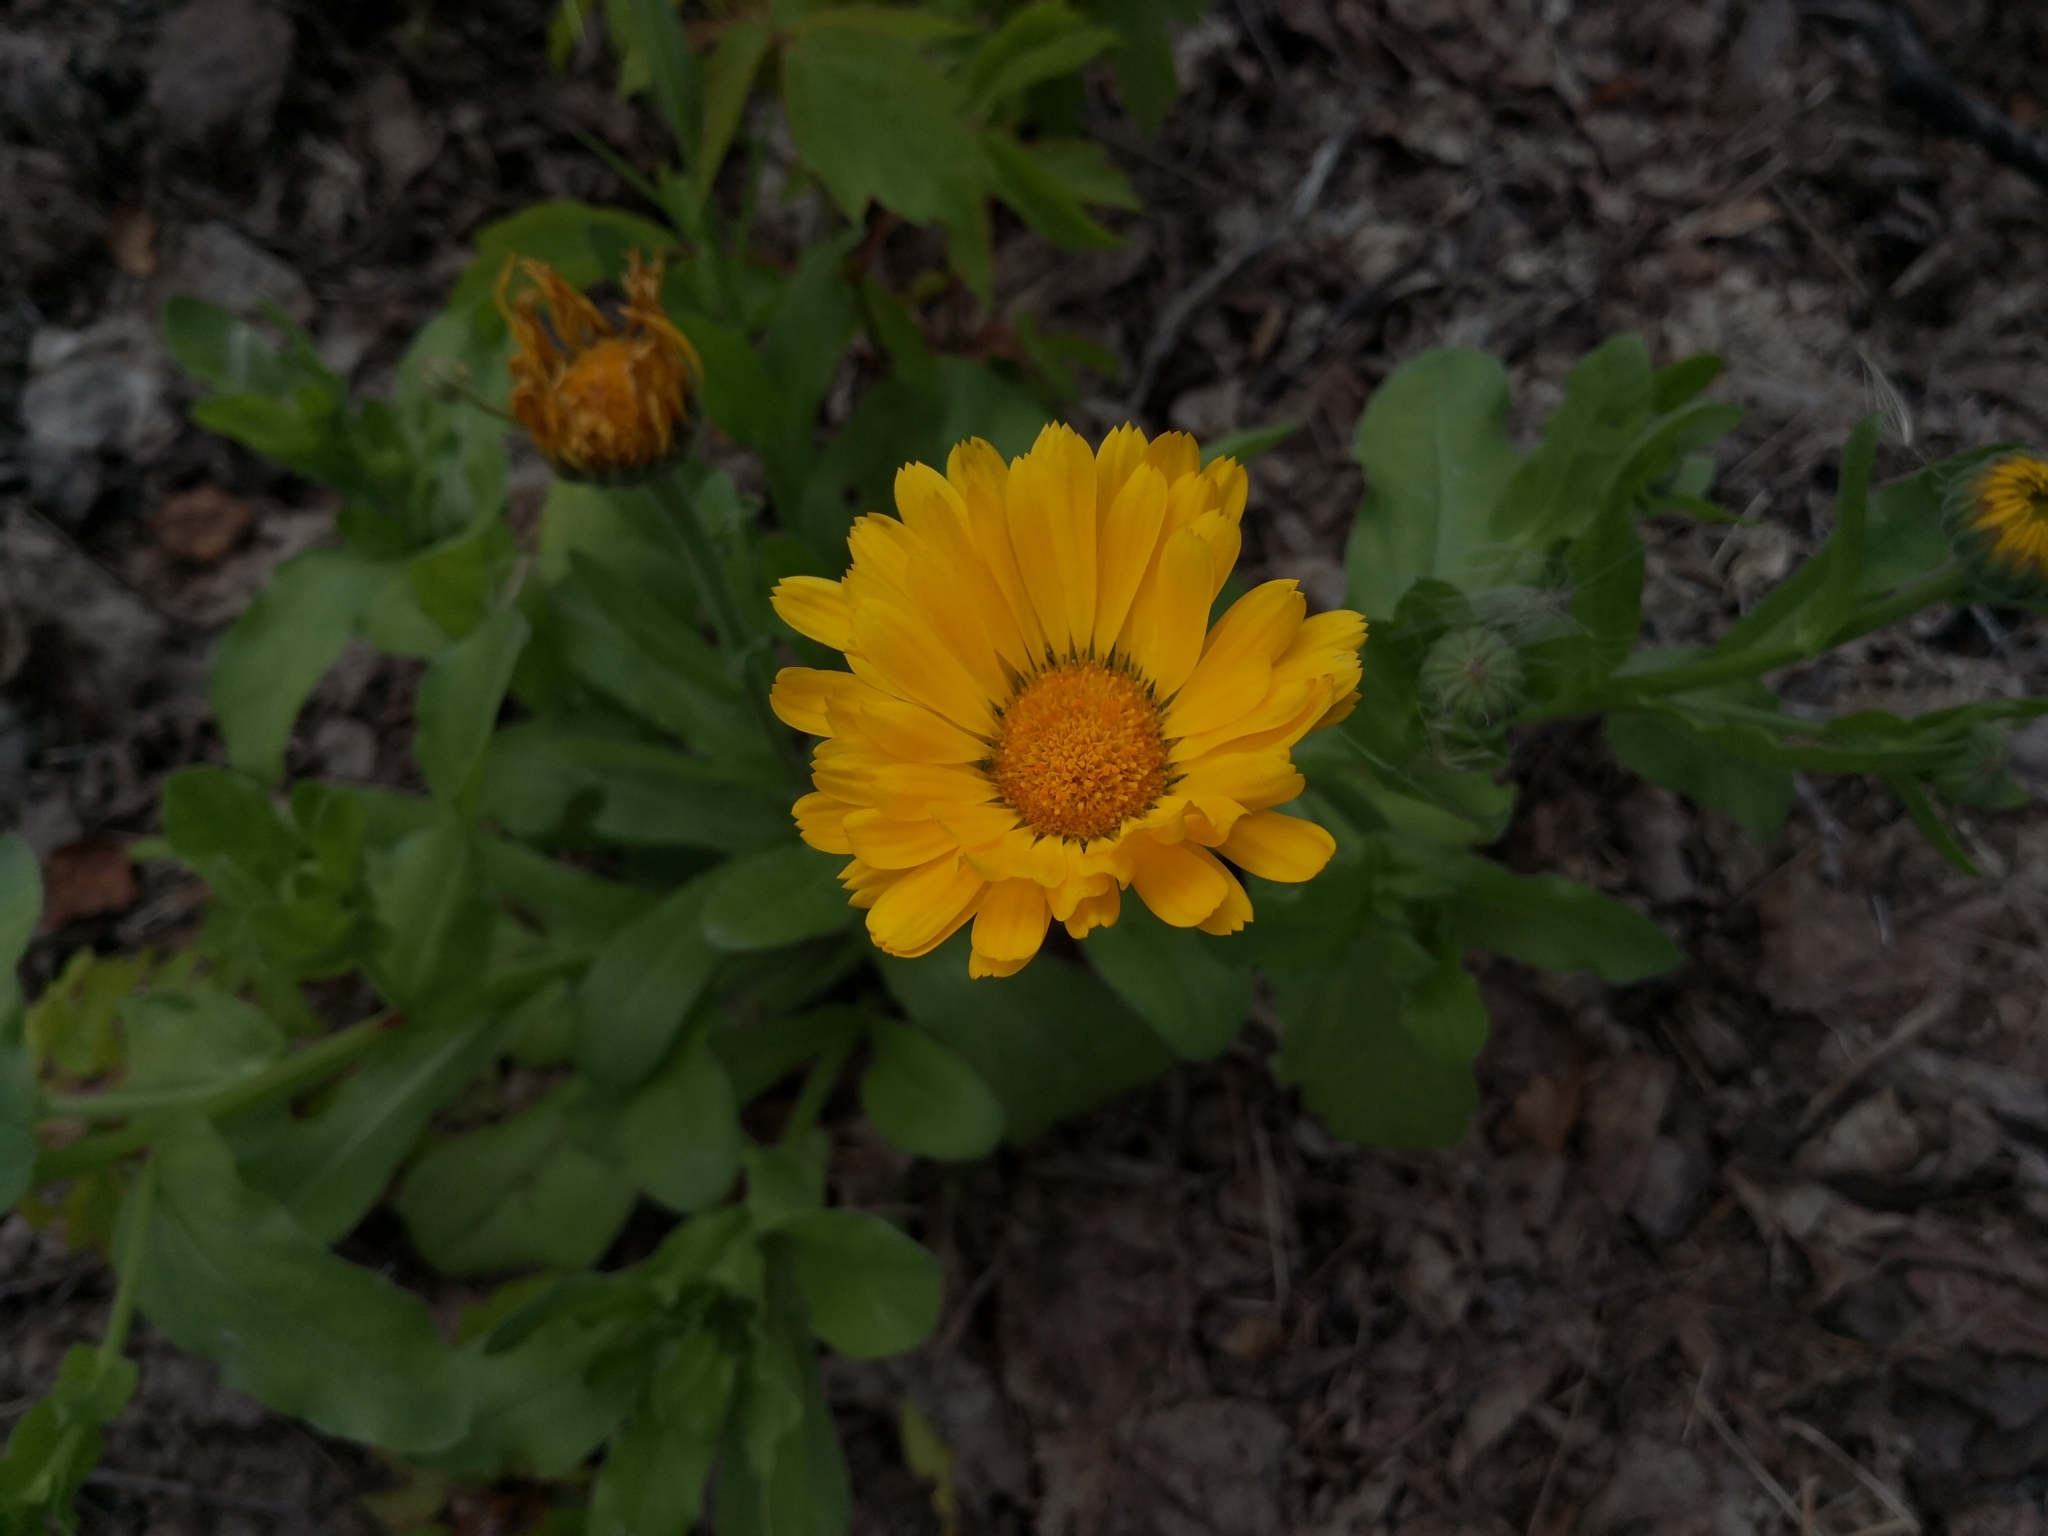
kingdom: Plantae
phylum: Tracheophyta
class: Magnoliopsida
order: Asterales
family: Asteraceae
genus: Calendula
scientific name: Calendula officinalis
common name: Pot marigold
